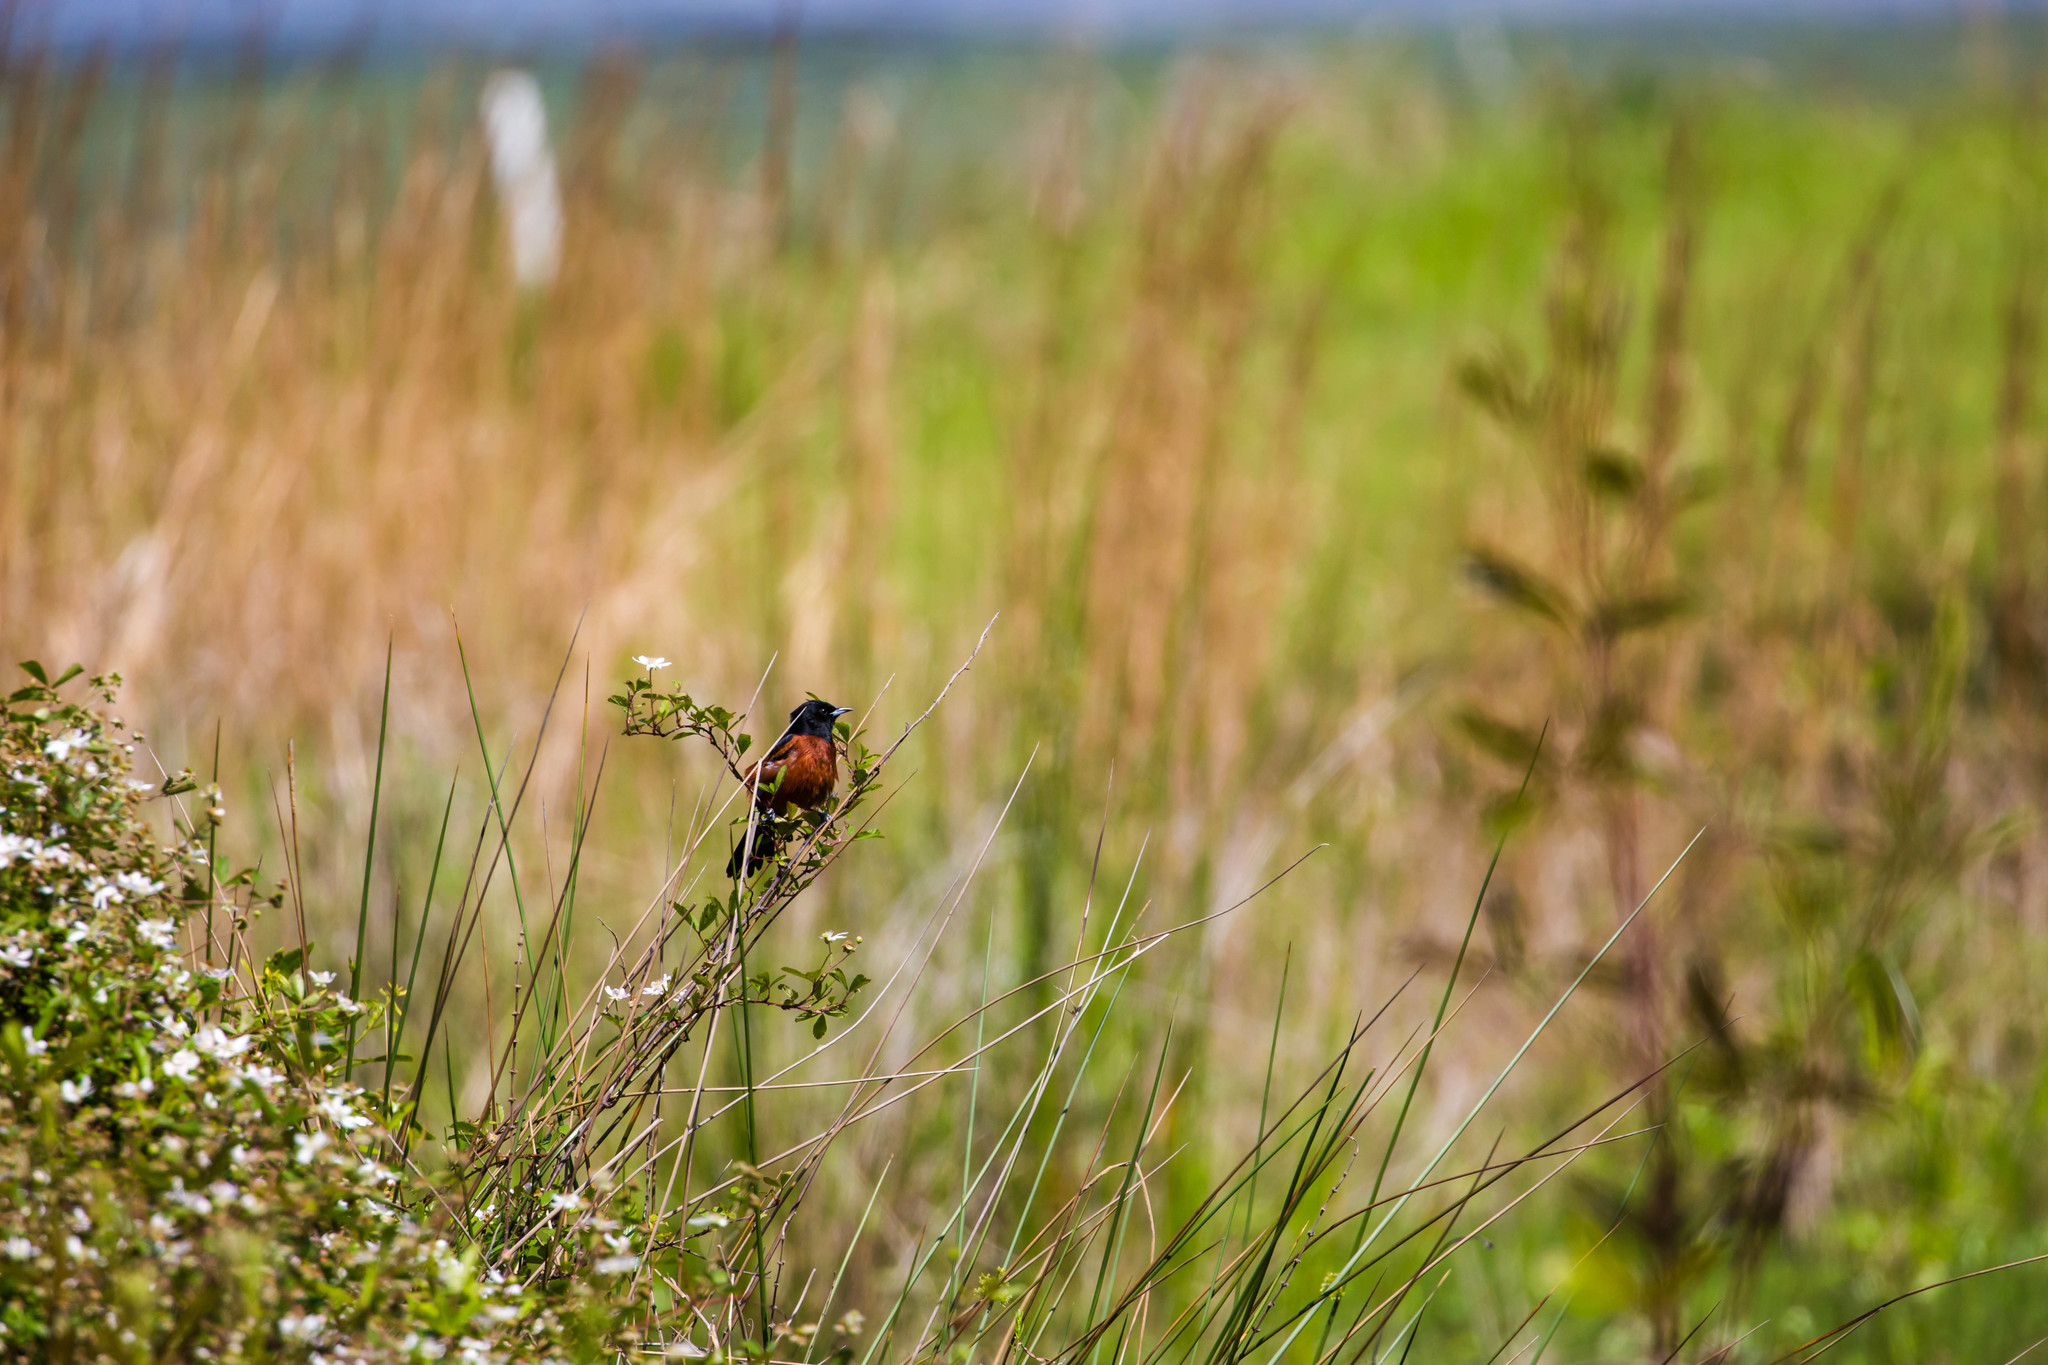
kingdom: Animalia
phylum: Chordata
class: Aves
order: Passeriformes
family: Icteridae
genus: Icterus
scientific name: Icterus spurius
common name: Orchard oriole
